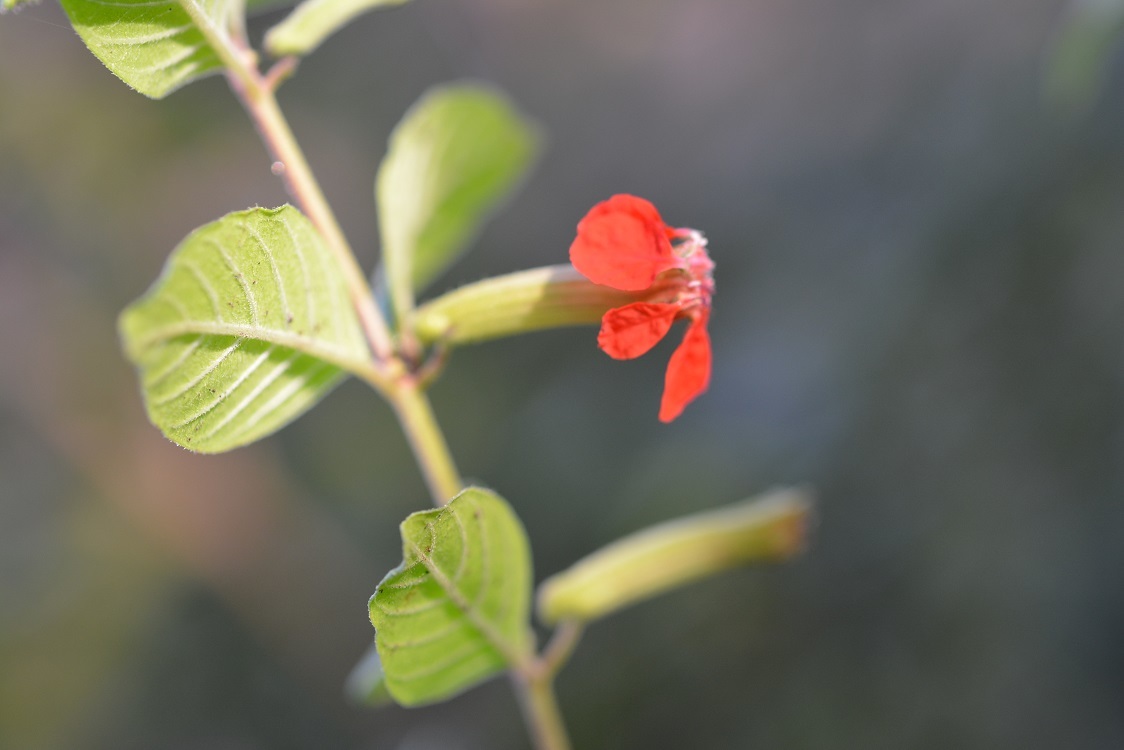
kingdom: Plantae
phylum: Tracheophyta
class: Magnoliopsida
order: Myrtales
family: Lythraceae
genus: Cuphea
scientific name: Cuphea intermedia
